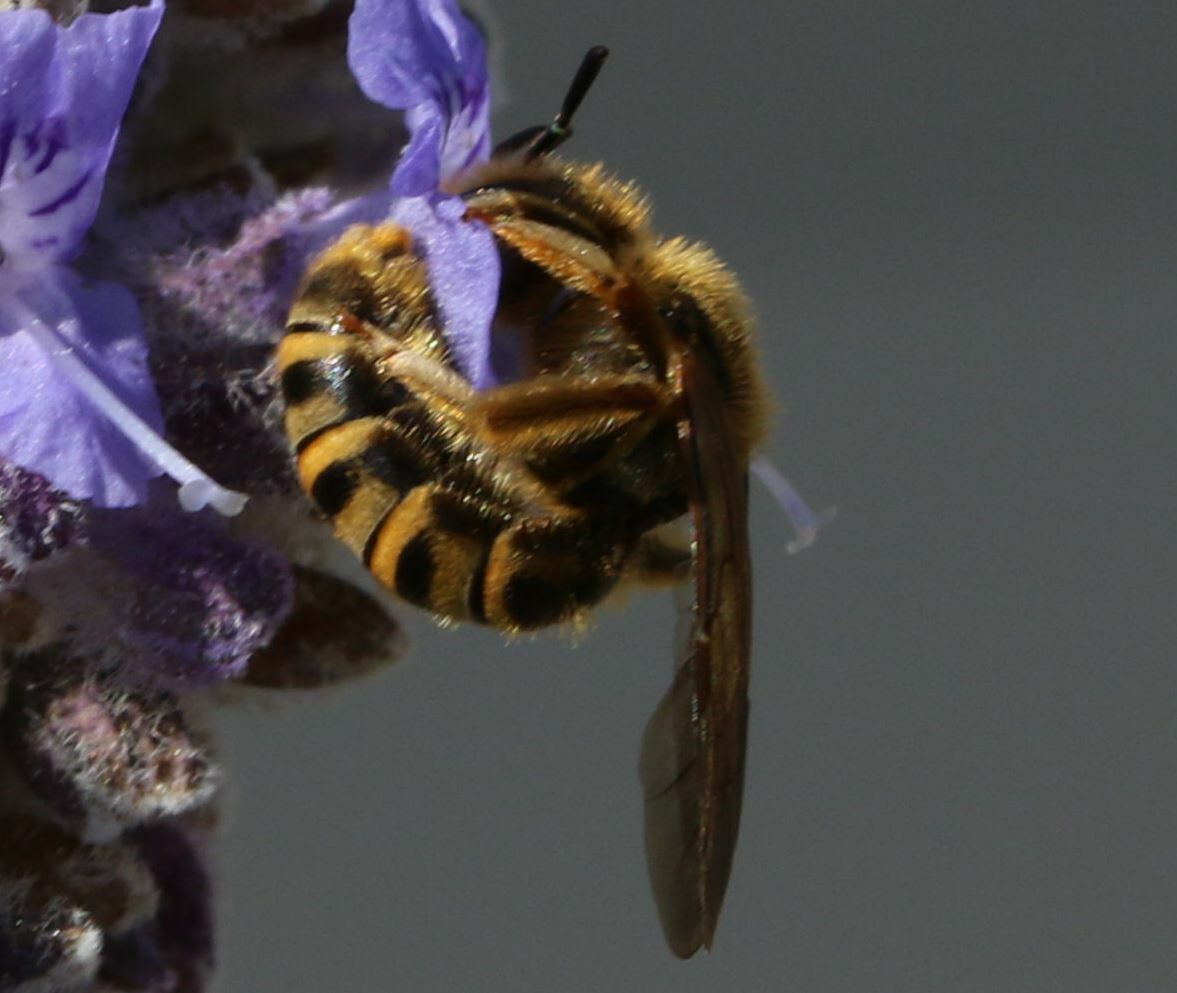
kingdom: Animalia
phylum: Arthropoda
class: Insecta
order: Hymenoptera
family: Halictidae
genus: Halictus
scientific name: Halictus scabiosae
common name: Great banded furrow bee
